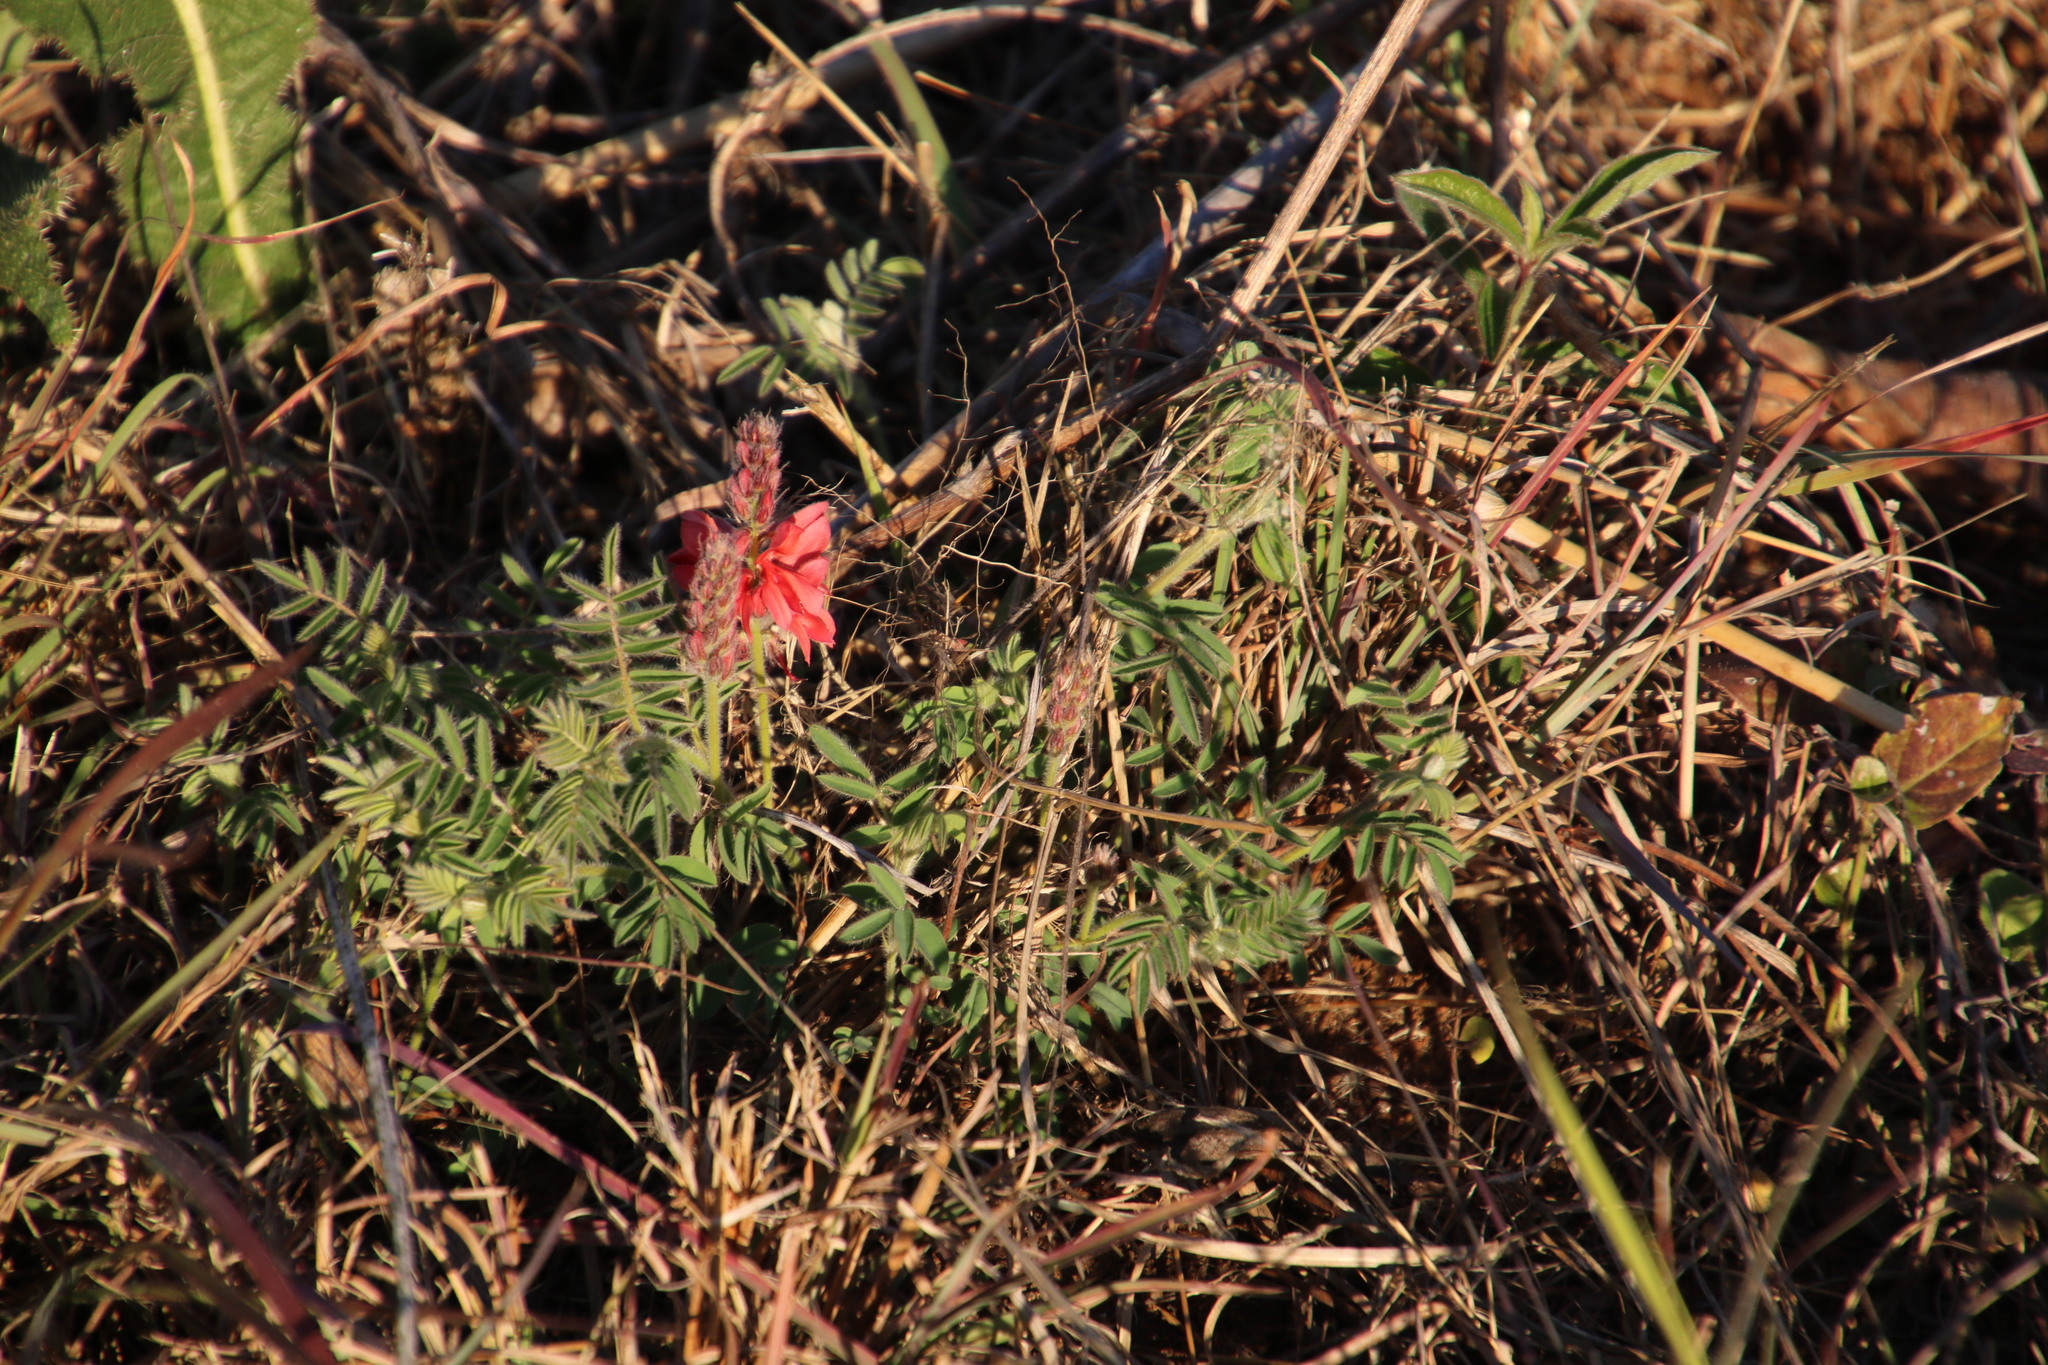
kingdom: Plantae
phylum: Tracheophyta
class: Magnoliopsida
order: Fabales
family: Fabaceae
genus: Indigofera
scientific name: Indigofera velutina
